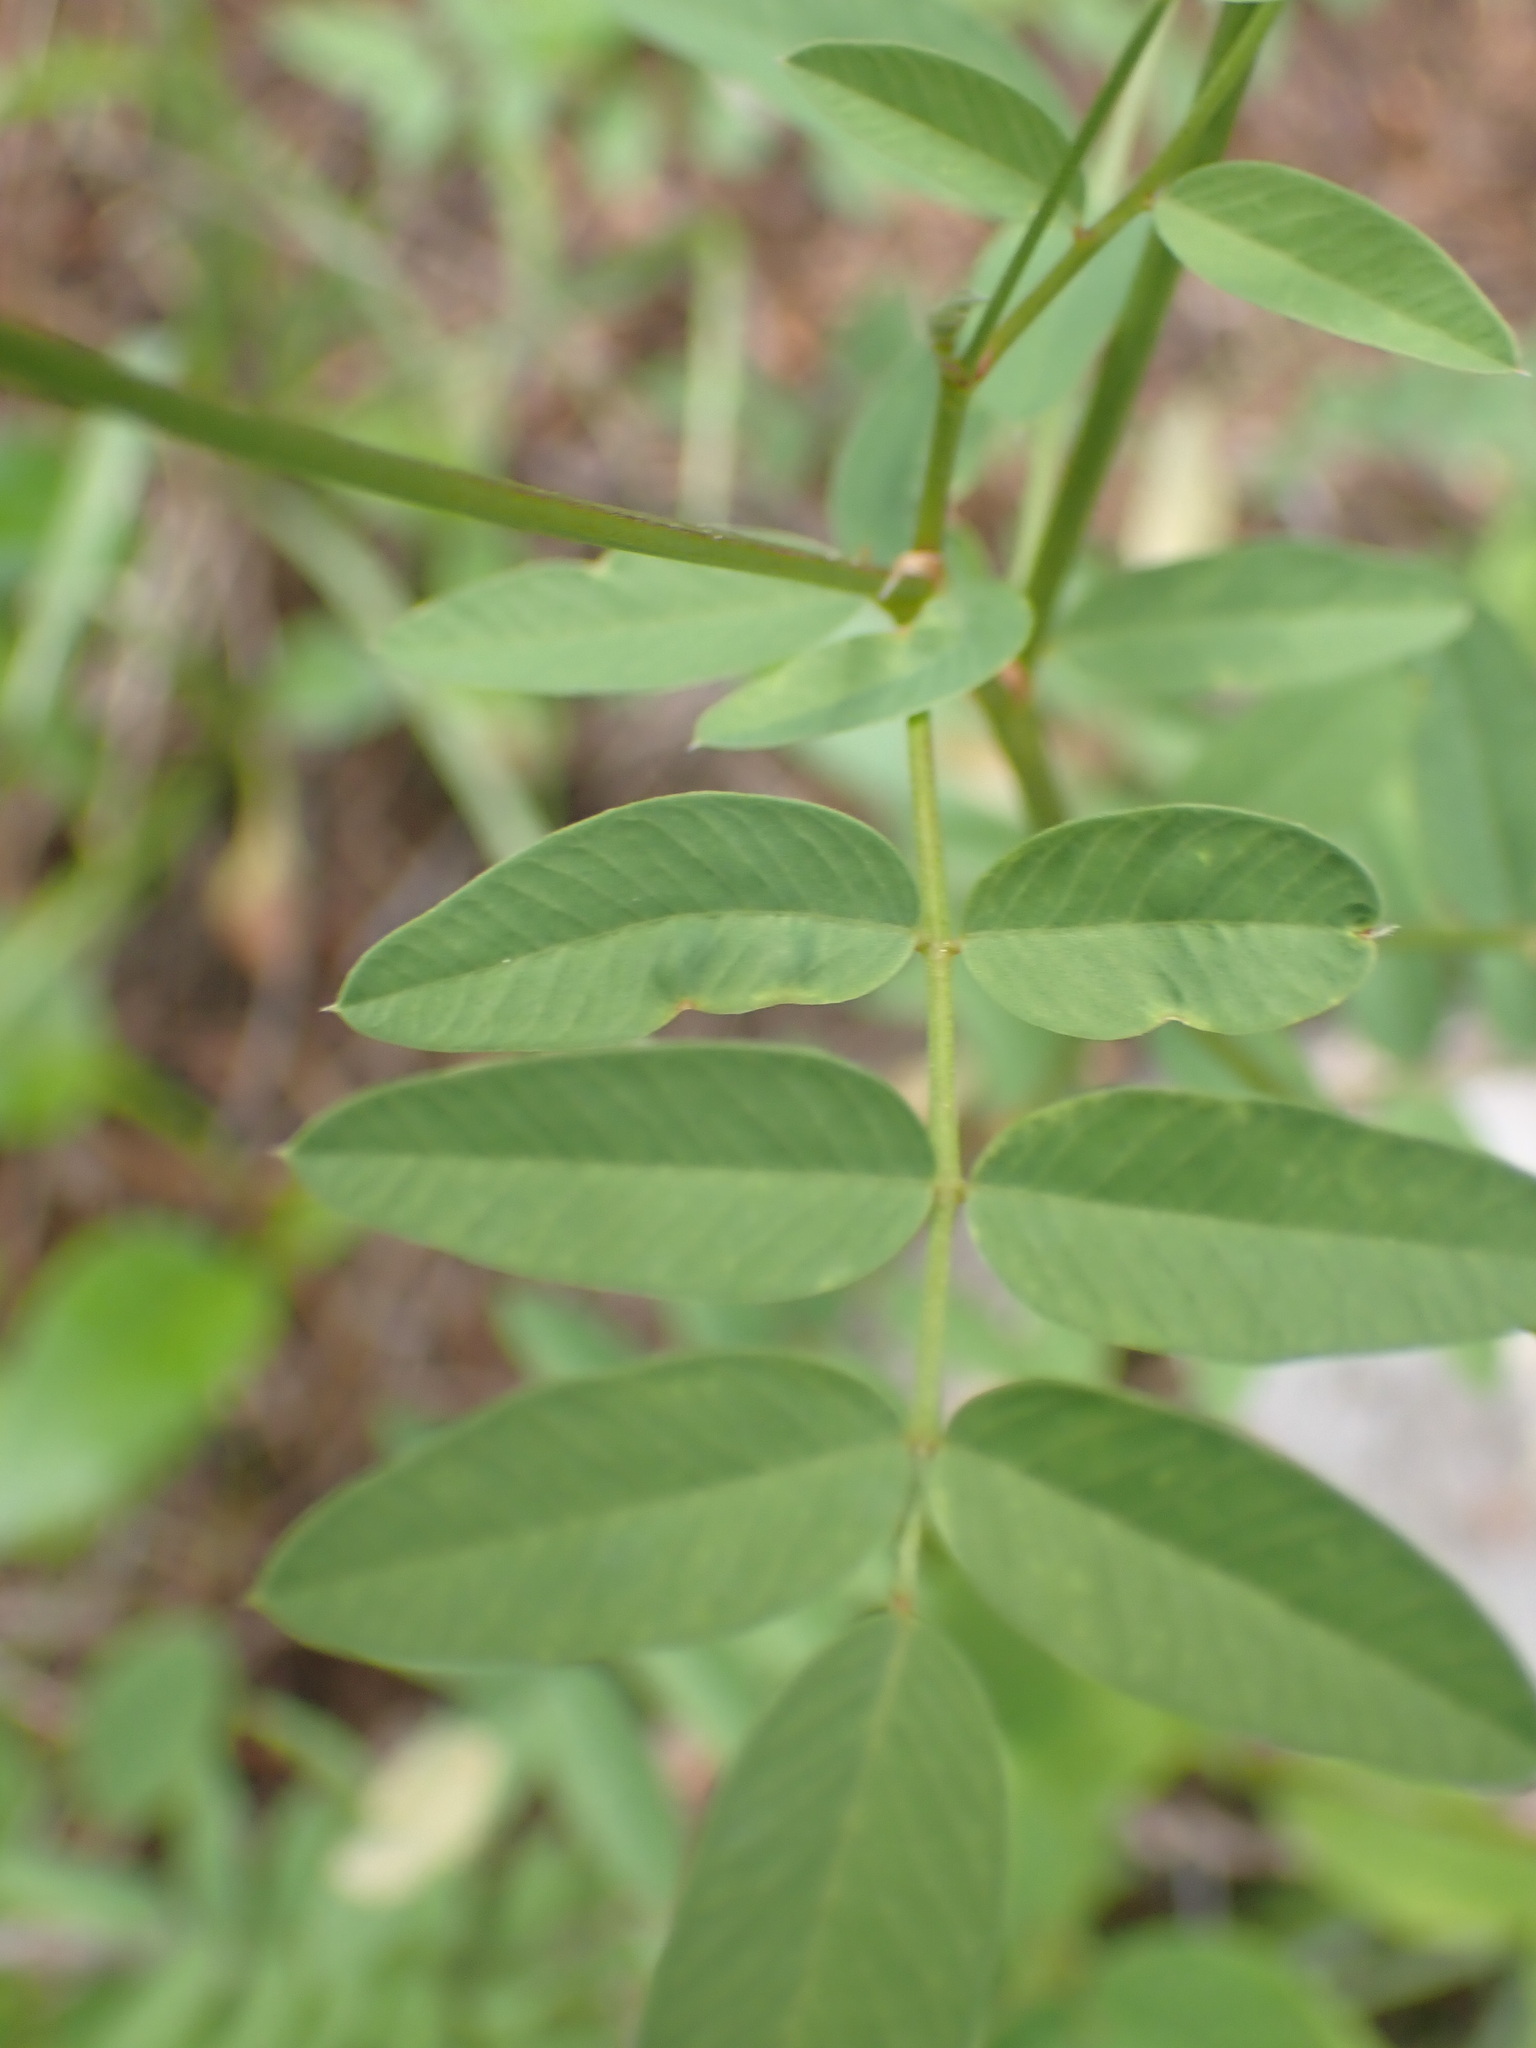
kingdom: Plantae
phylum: Tracheophyta
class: Magnoliopsida
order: Fabales
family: Fabaceae
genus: Hedysarum
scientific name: Hedysarum sulphurescens
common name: Sulphur hedysarum
